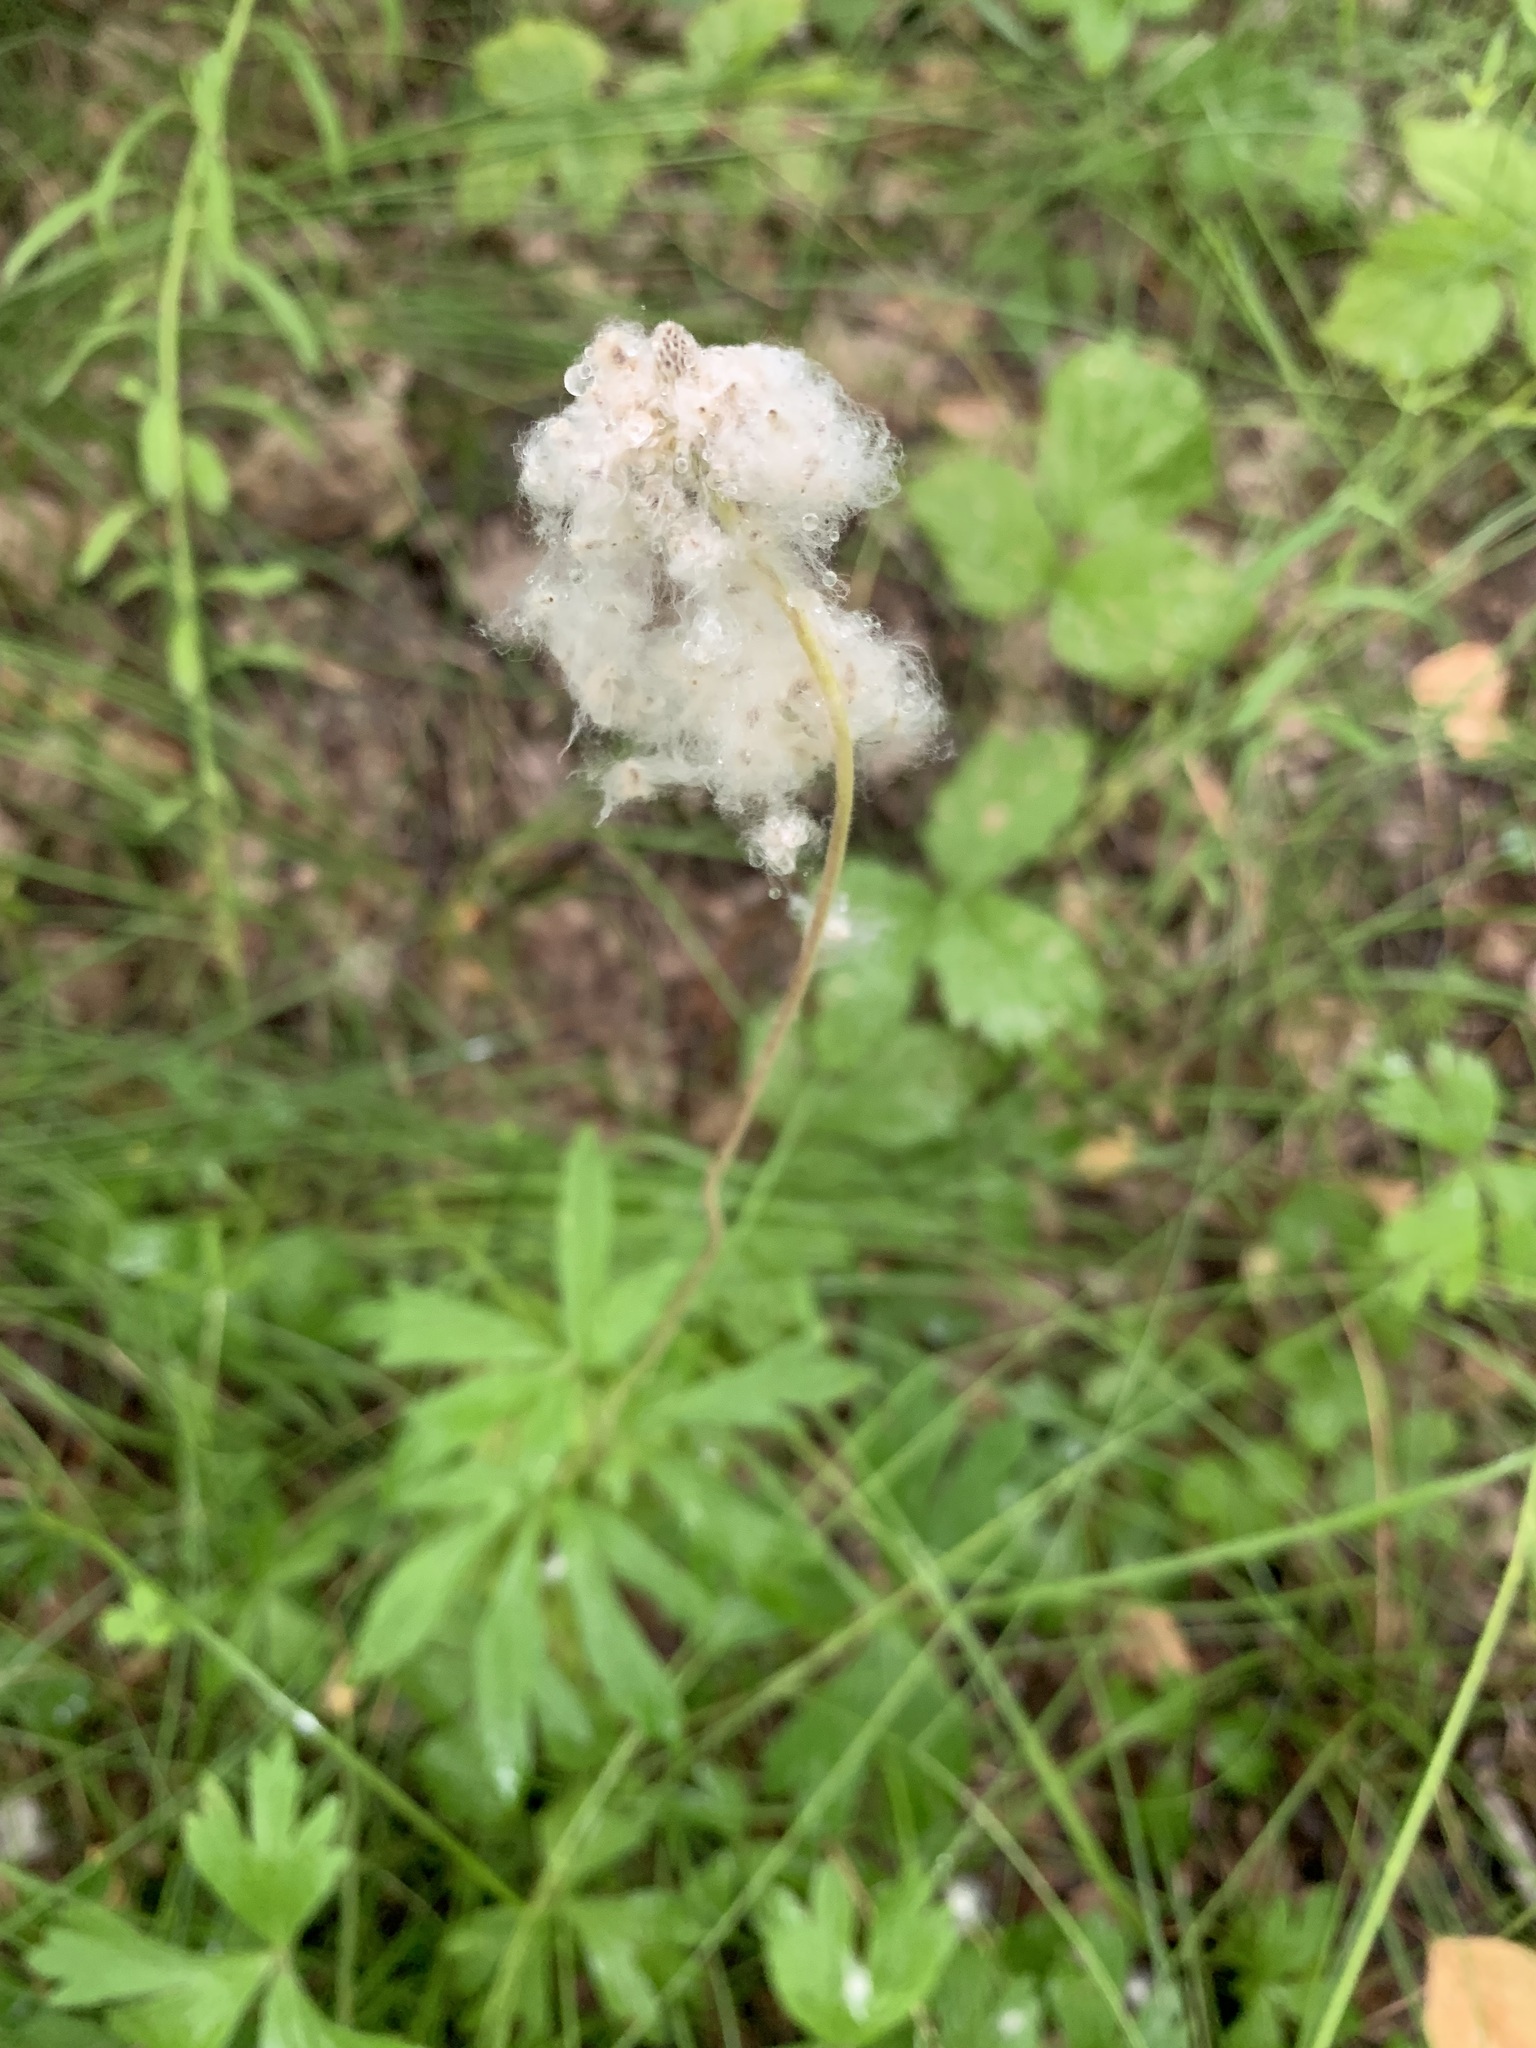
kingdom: Plantae
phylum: Tracheophyta
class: Magnoliopsida
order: Ranunculales
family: Ranunculaceae
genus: Anemone
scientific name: Anemone sylvestris
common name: Snowdrop anemone
